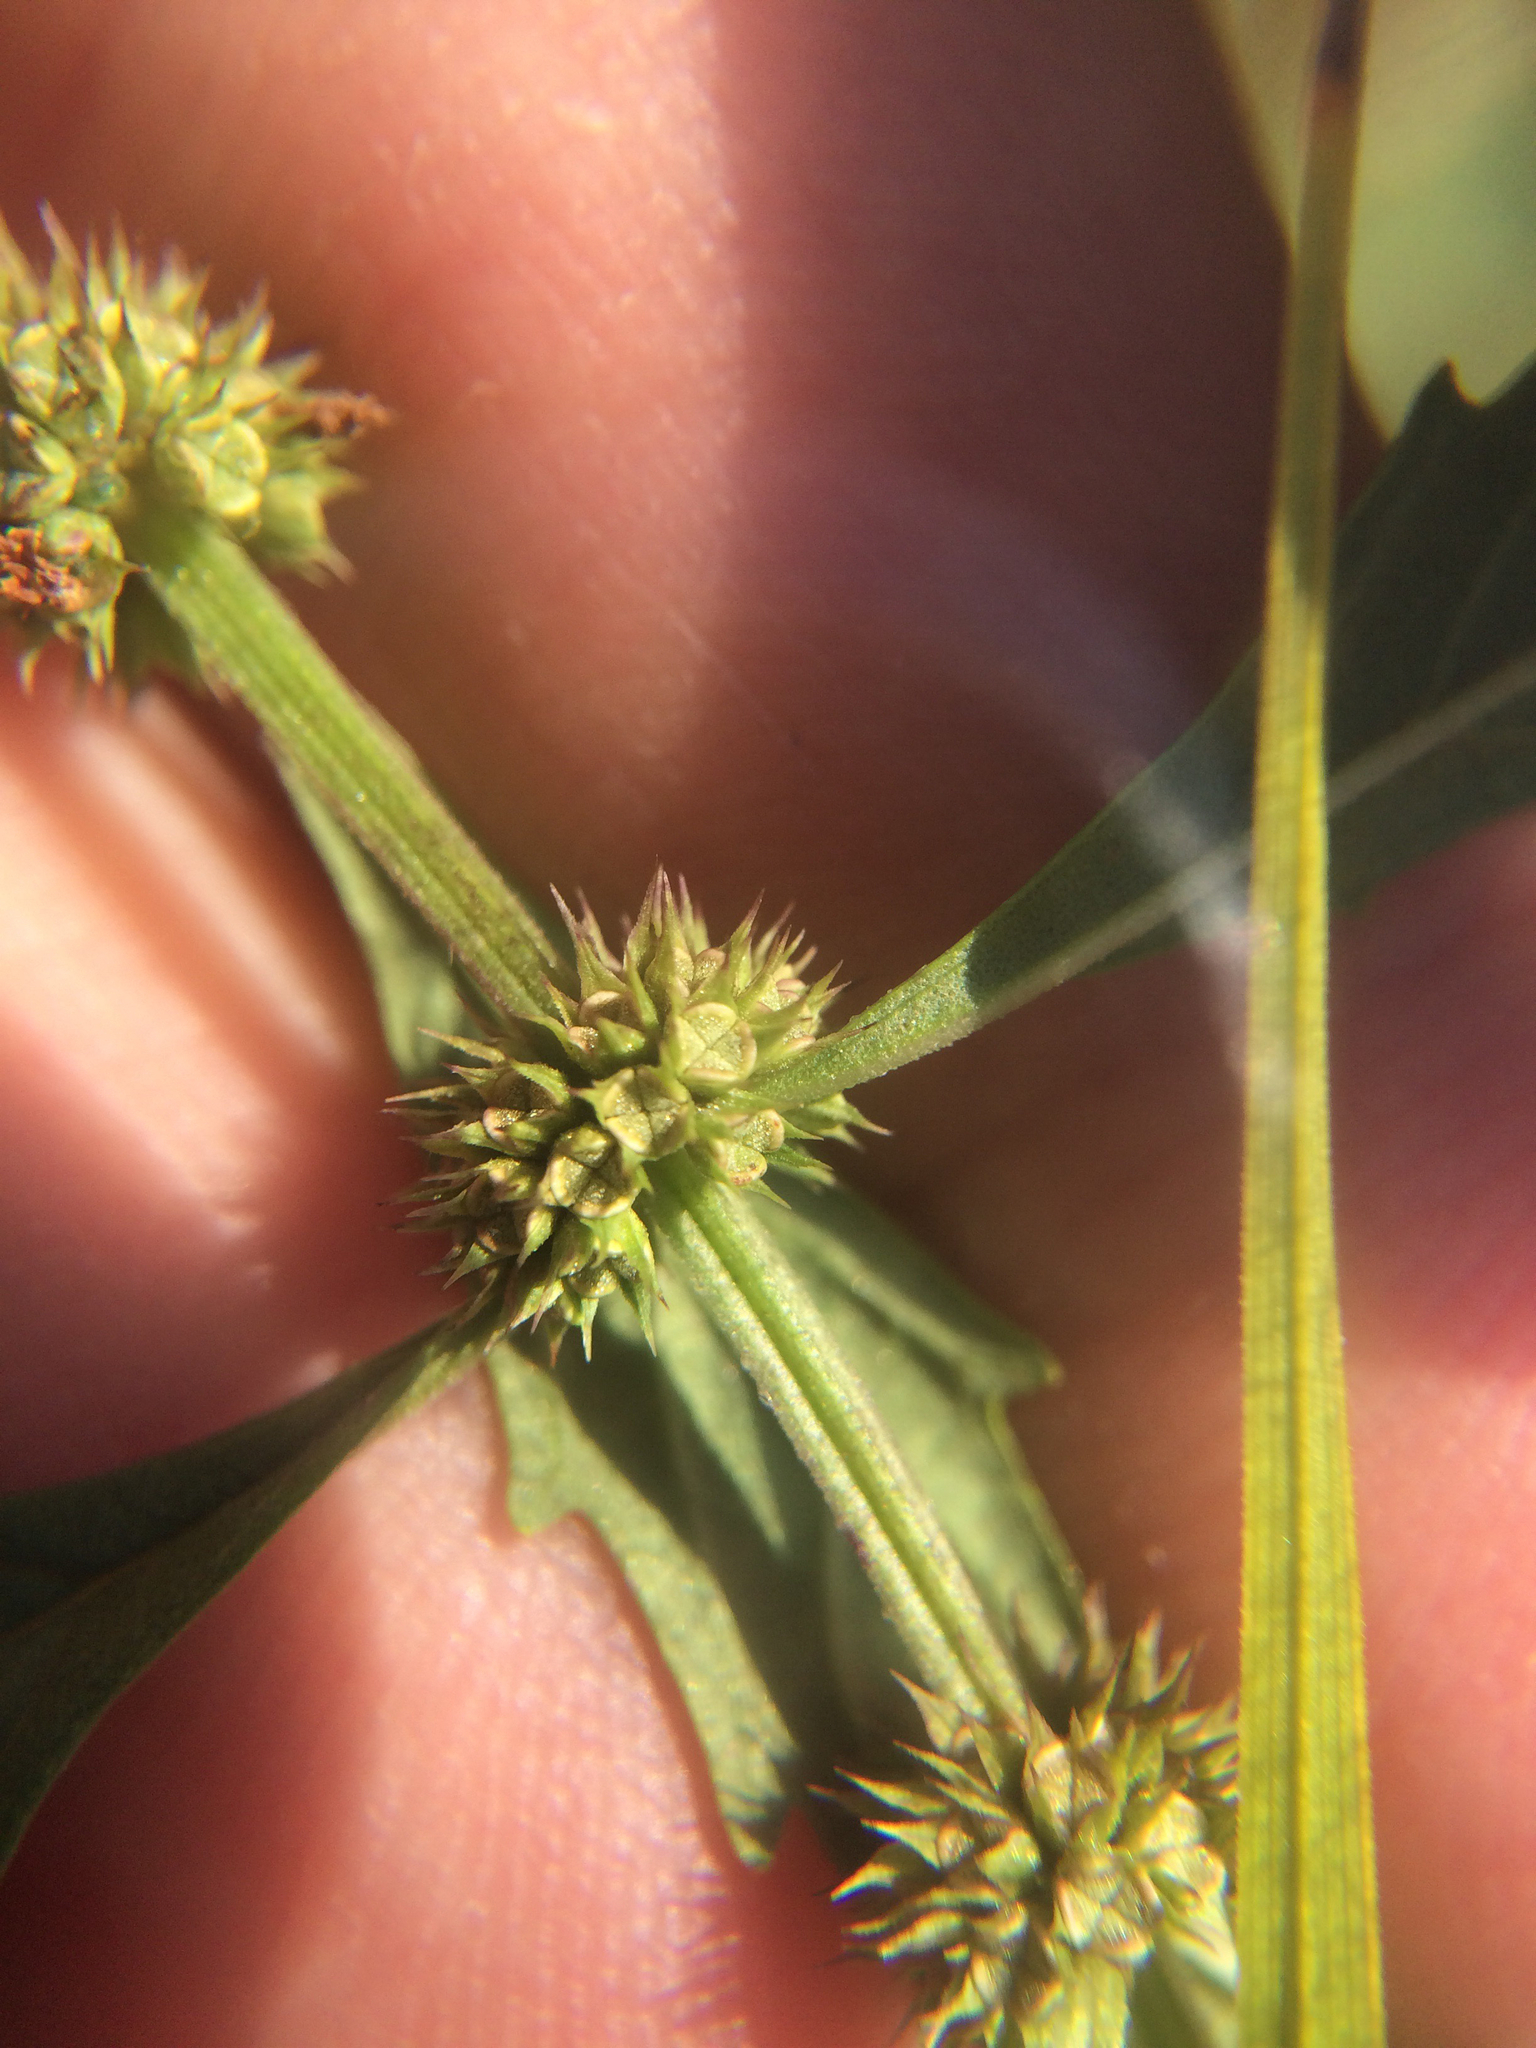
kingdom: Plantae
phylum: Tracheophyta
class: Magnoliopsida
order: Lamiales
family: Lamiaceae
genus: Lycopus
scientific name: Lycopus americanus
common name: American bugleweed
